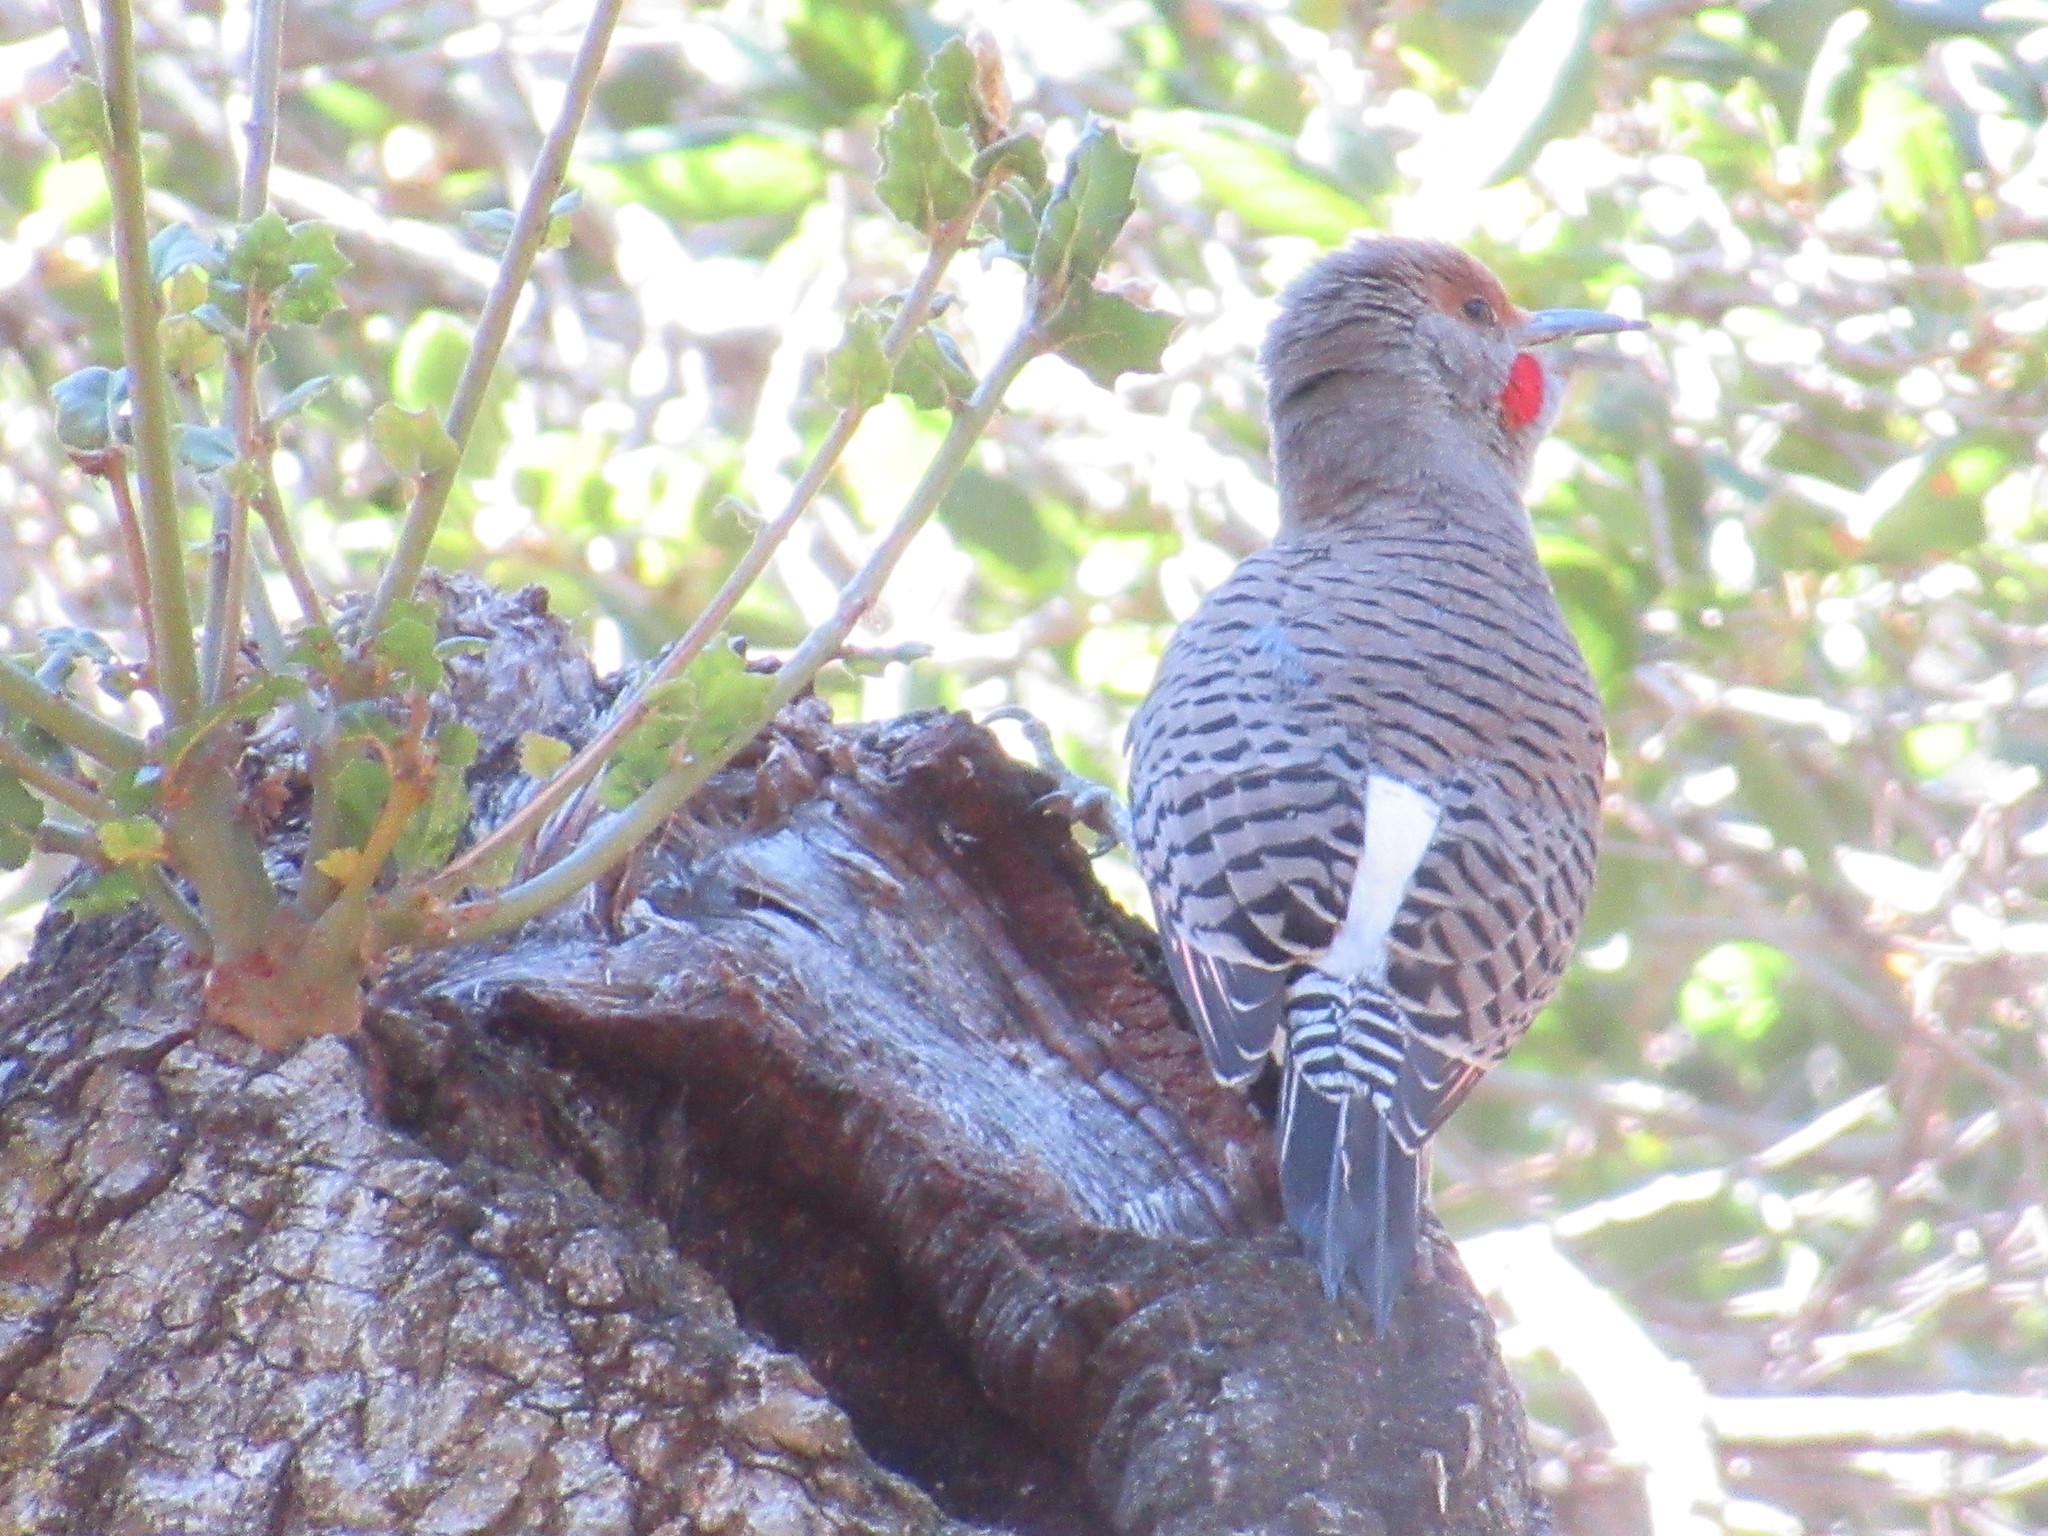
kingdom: Animalia
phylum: Chordata
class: Aves
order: Piciformes
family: Picidae
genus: Colaptes
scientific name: Colaptes auratus
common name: Northern flicker
